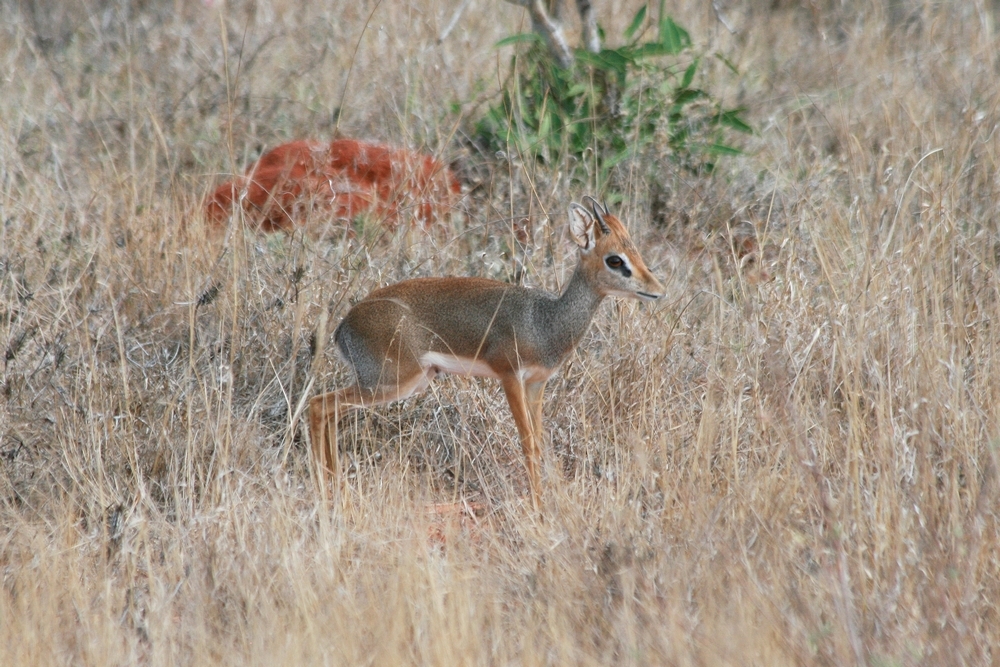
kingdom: Animalia
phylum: Chordata
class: Mammalia
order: Artiodactyla
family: Bovidae
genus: Madoqua
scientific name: Madoqua
